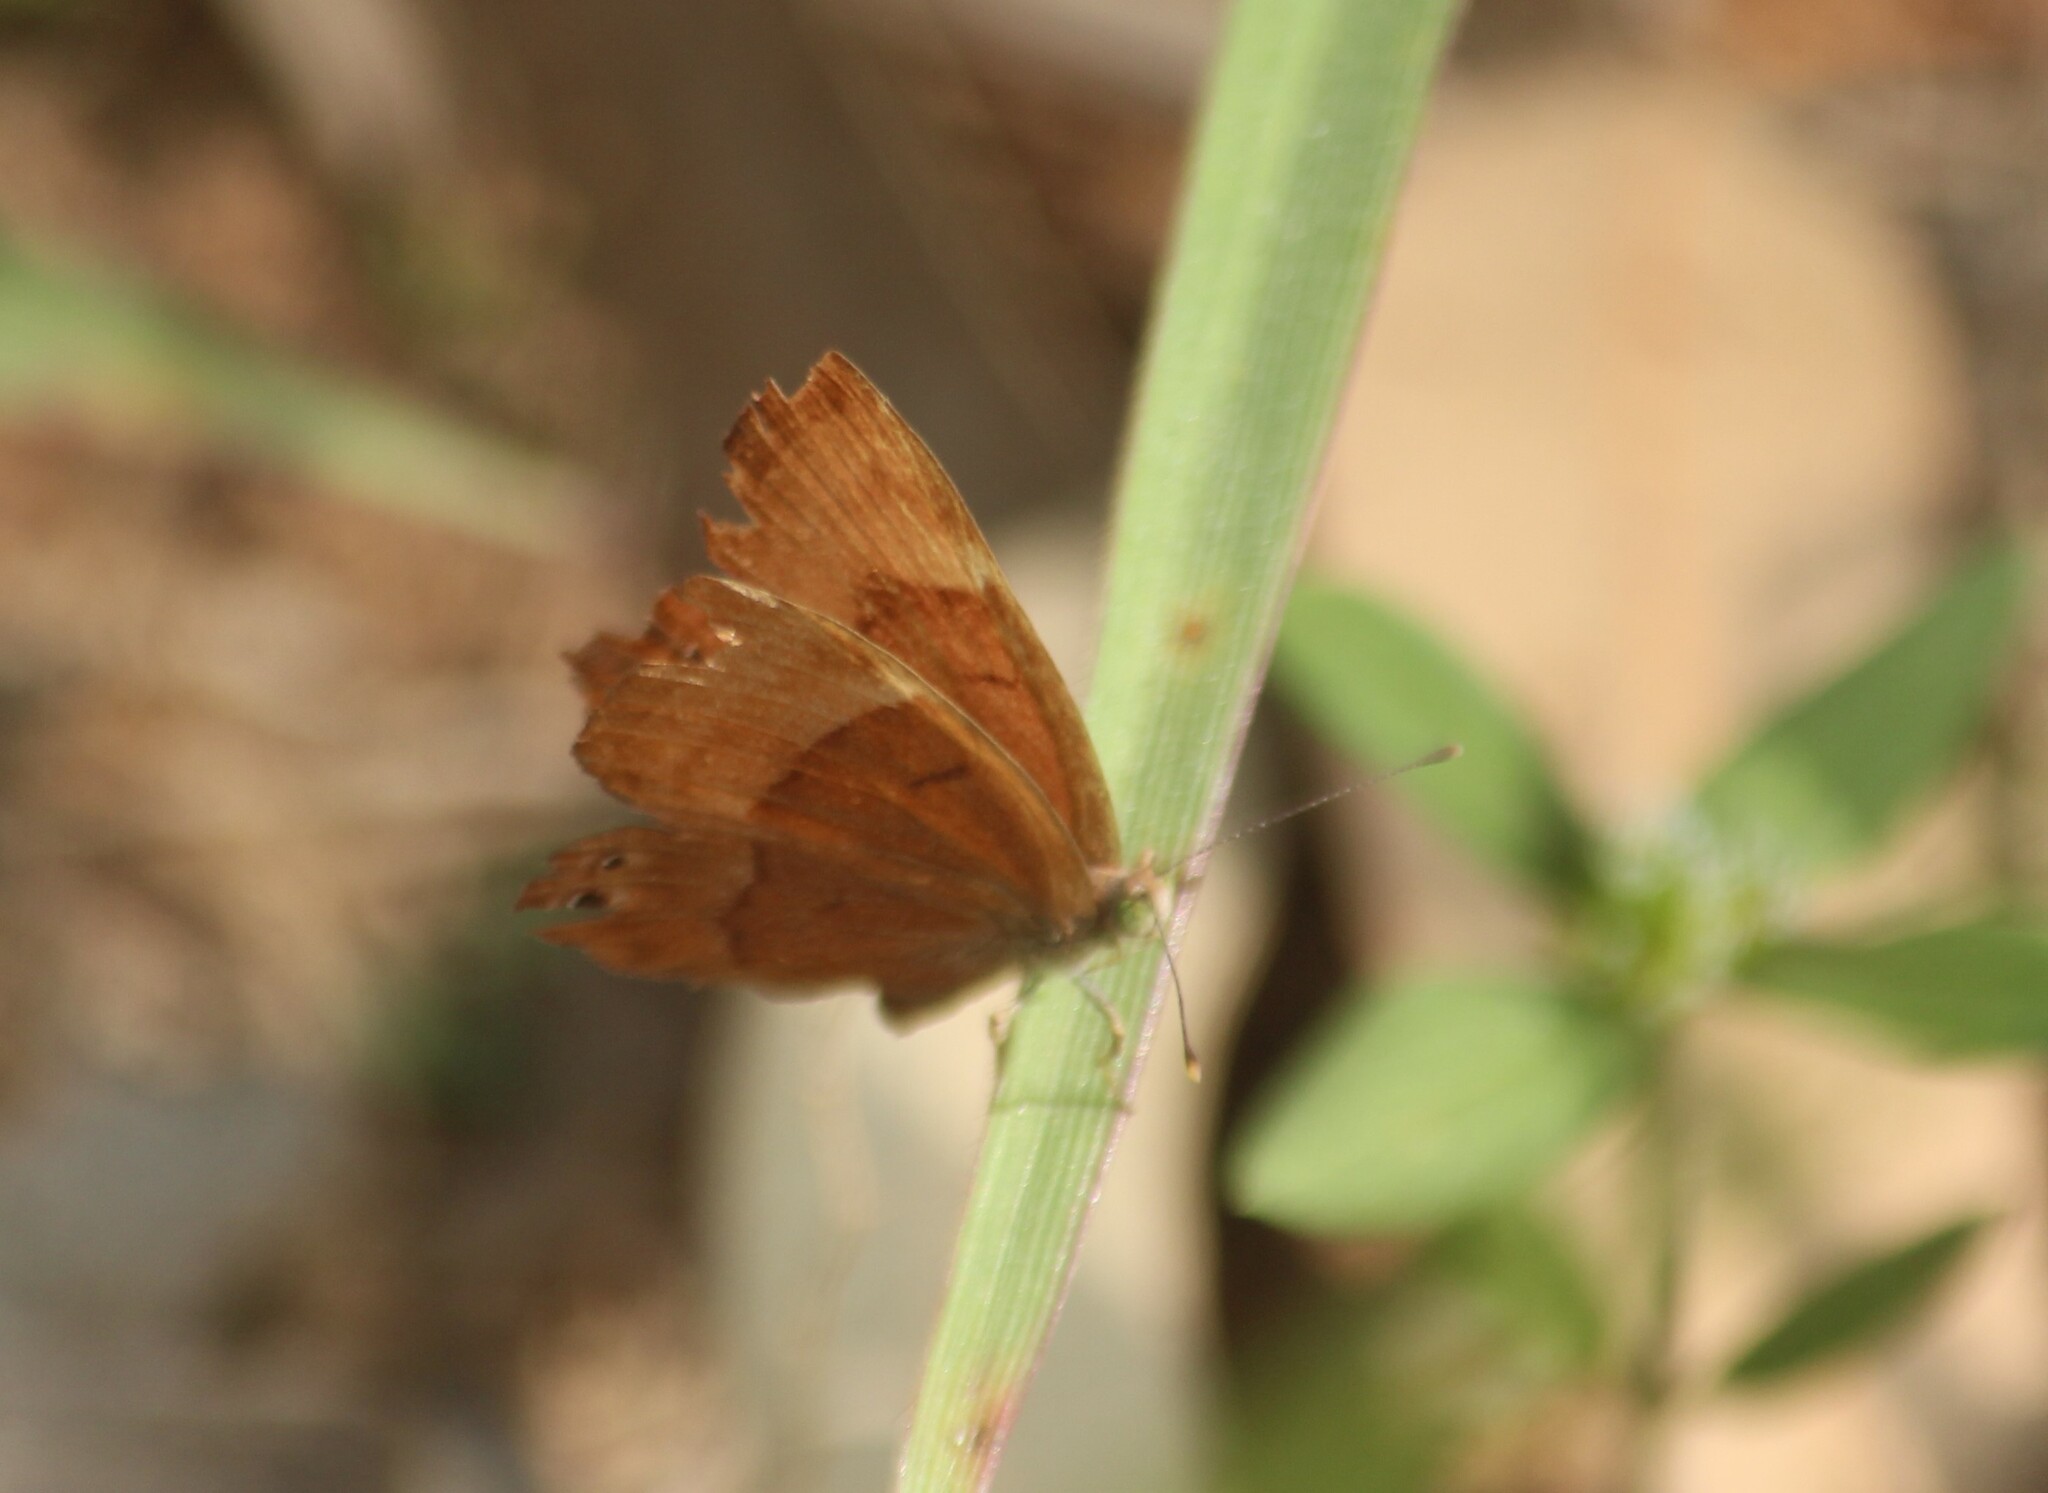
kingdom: Animalia
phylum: Arthropoda
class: Insecta
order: Lepidoptera
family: Lycaenidae
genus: Abisara
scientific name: Abisara bifasciata
